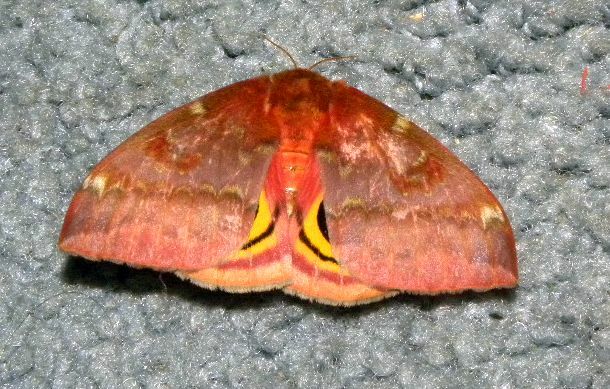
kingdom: Animalia
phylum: Arthropoda
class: Insecta
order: Lepidoptera
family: Saturniidae
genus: Automeris
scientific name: Automeris io
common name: Io moth
